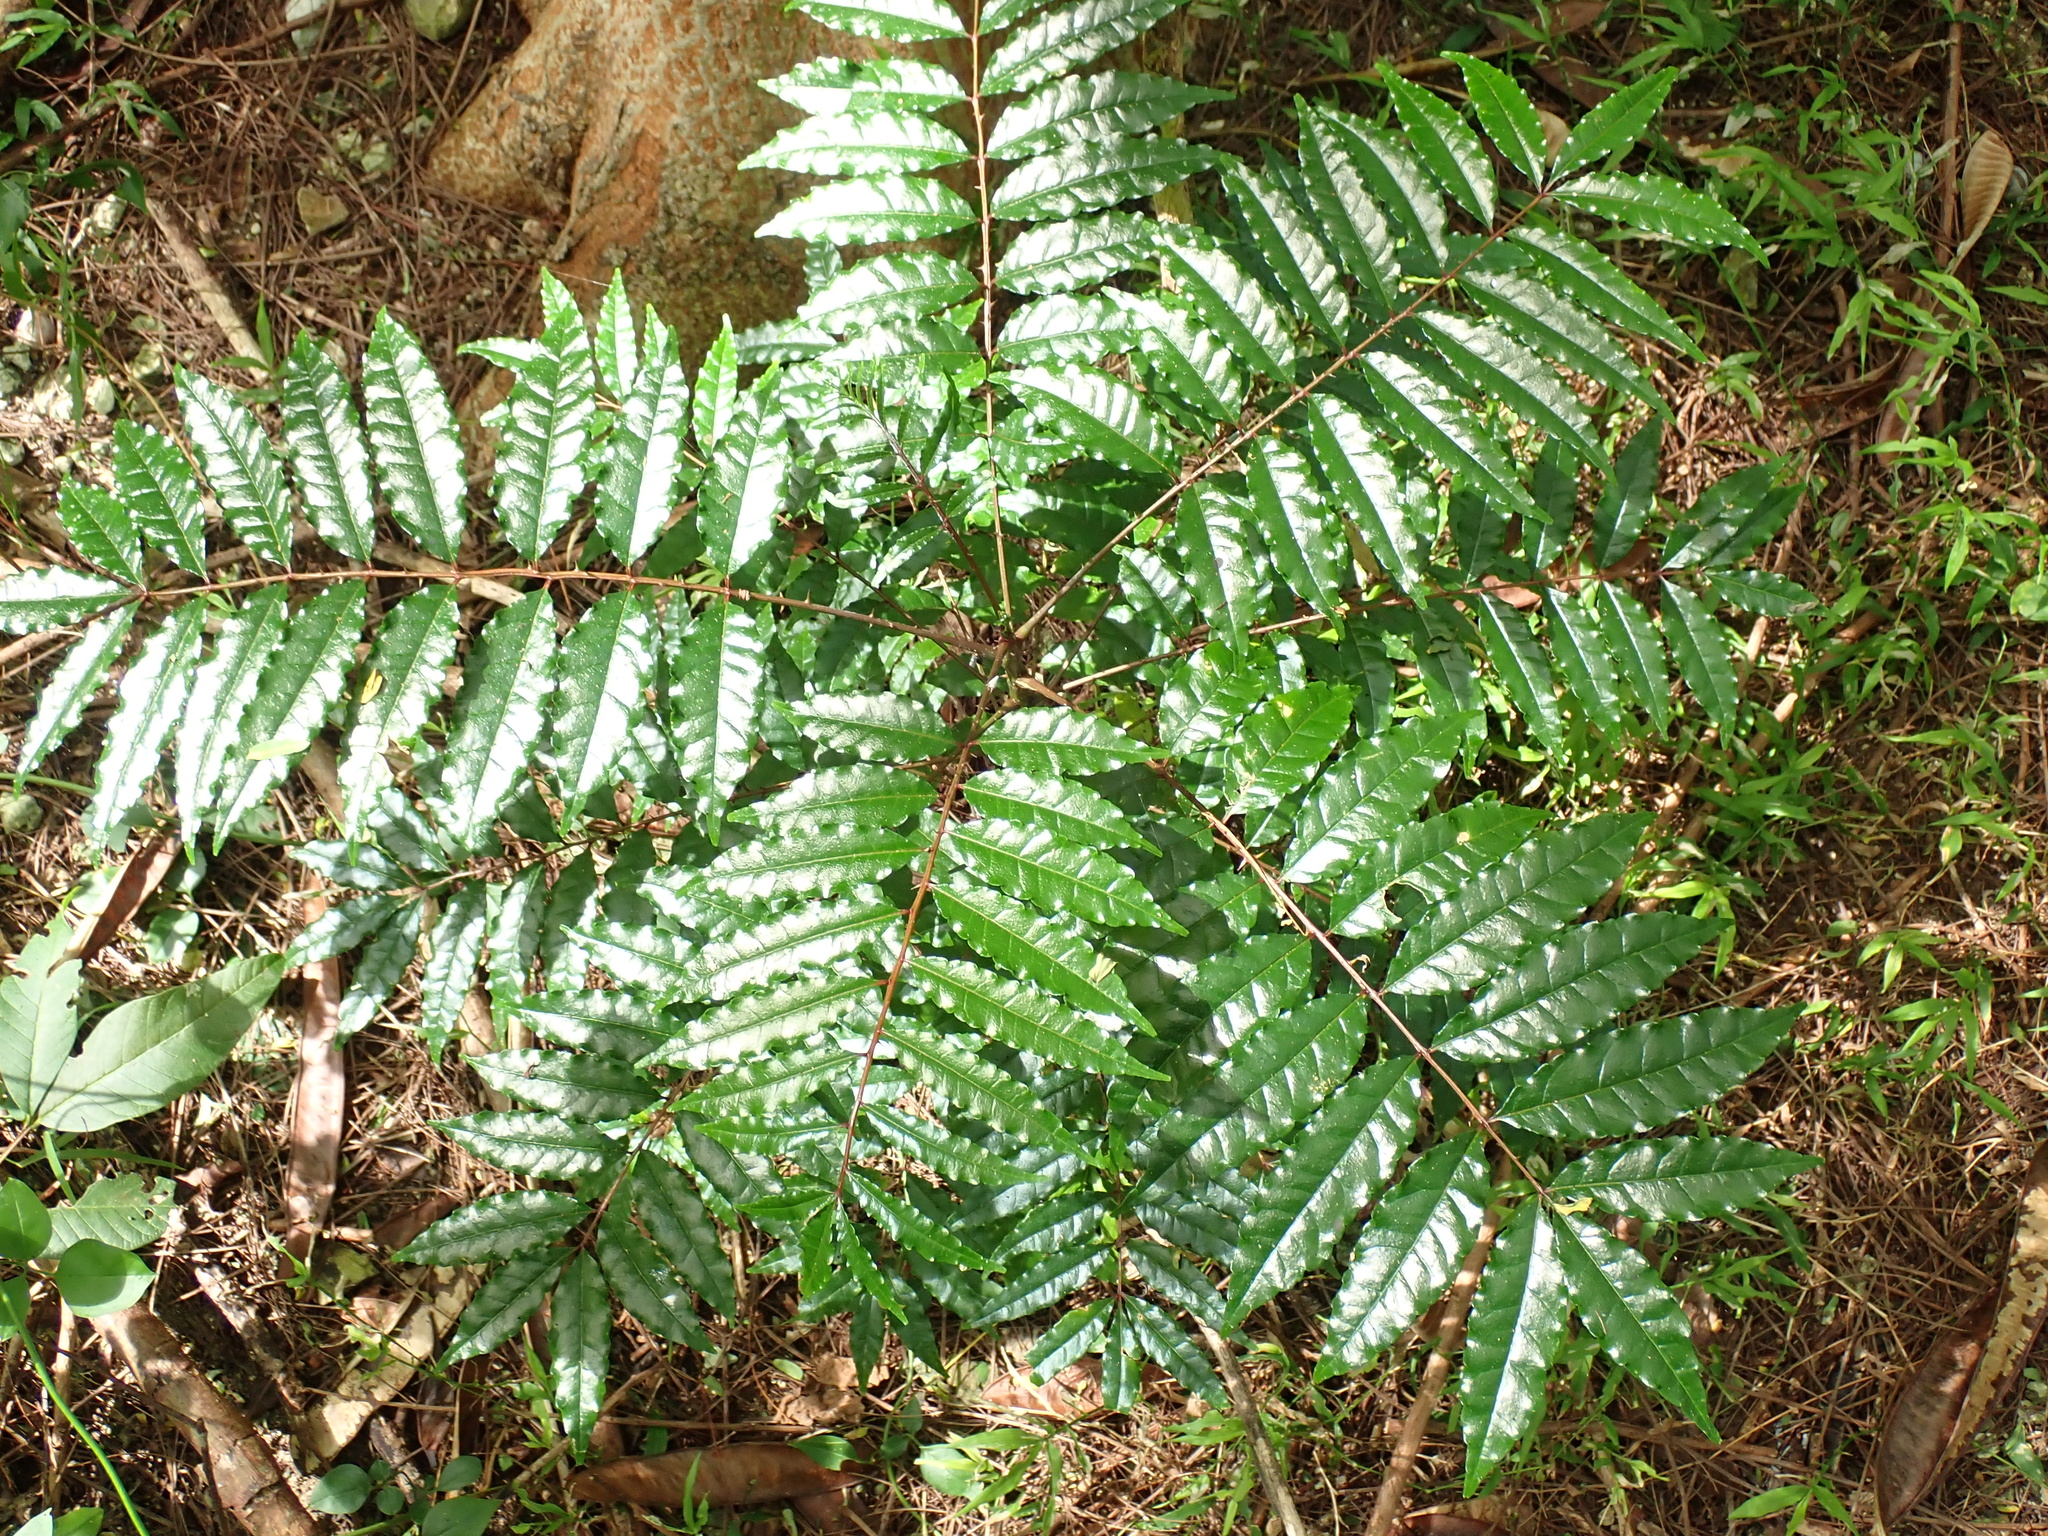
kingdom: Plantae
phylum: Tracheophyta
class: Magnoliopsida
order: Sapindales
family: Rutaceae
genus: Zanthoxylum
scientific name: Zanthoxylum caribaeum
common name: Prickly yellow
